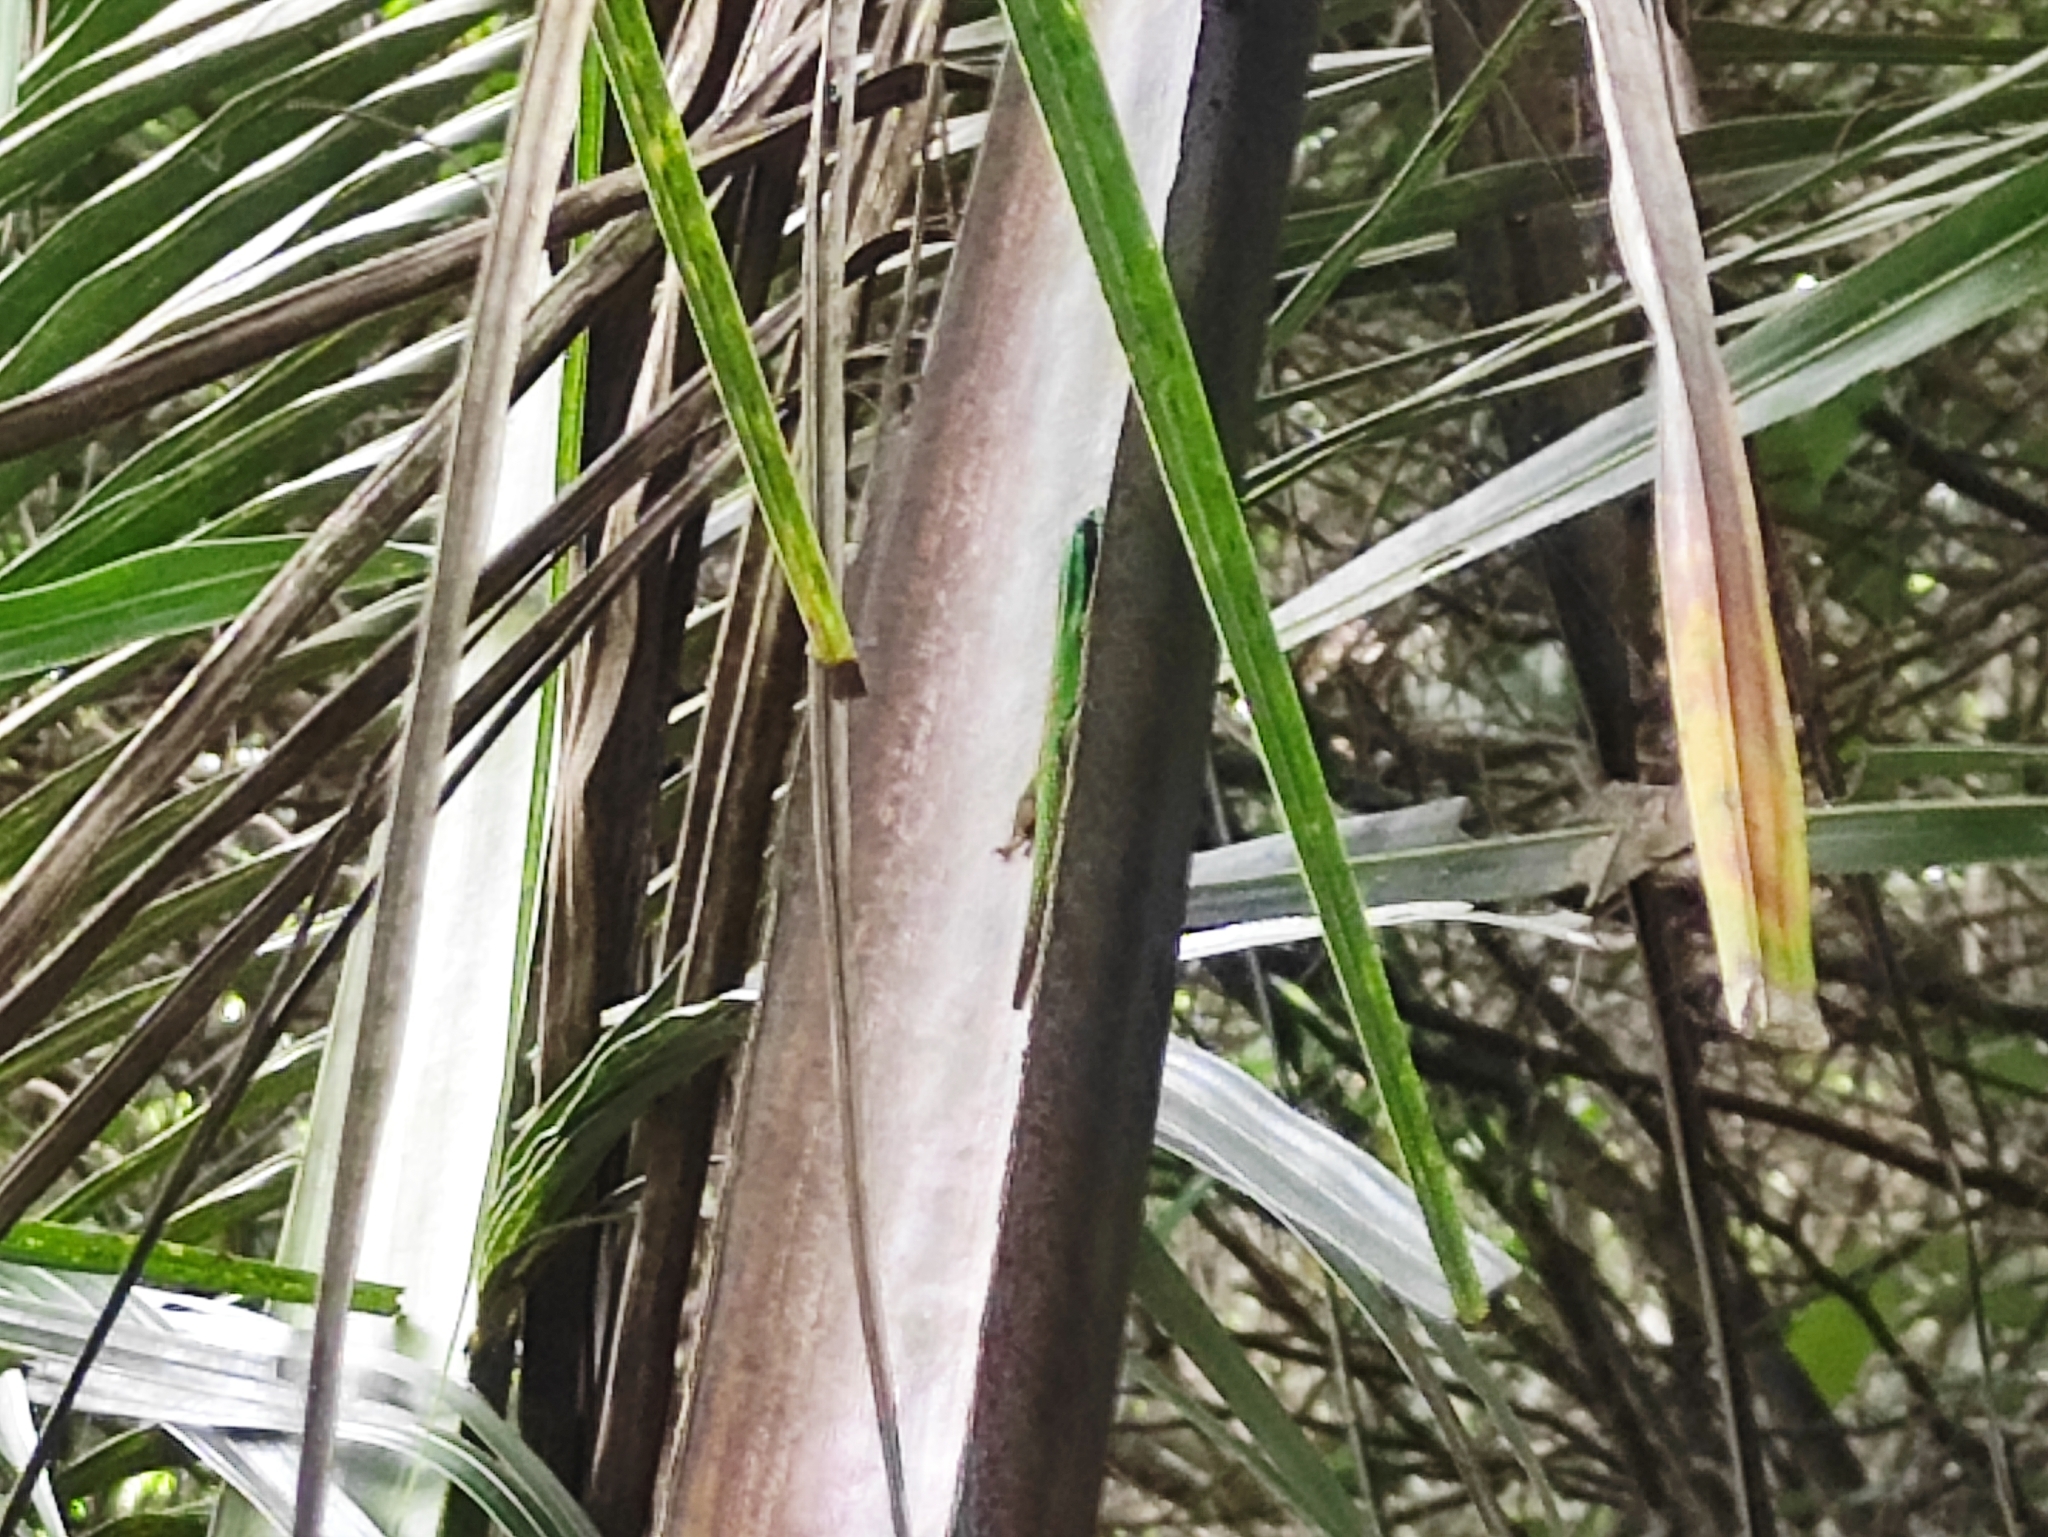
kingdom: Animalia
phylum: Chordata
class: Squamata
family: Gekkonidae
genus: Phelsuma
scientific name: Phelsuma nigristriata
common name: Island day gecko
